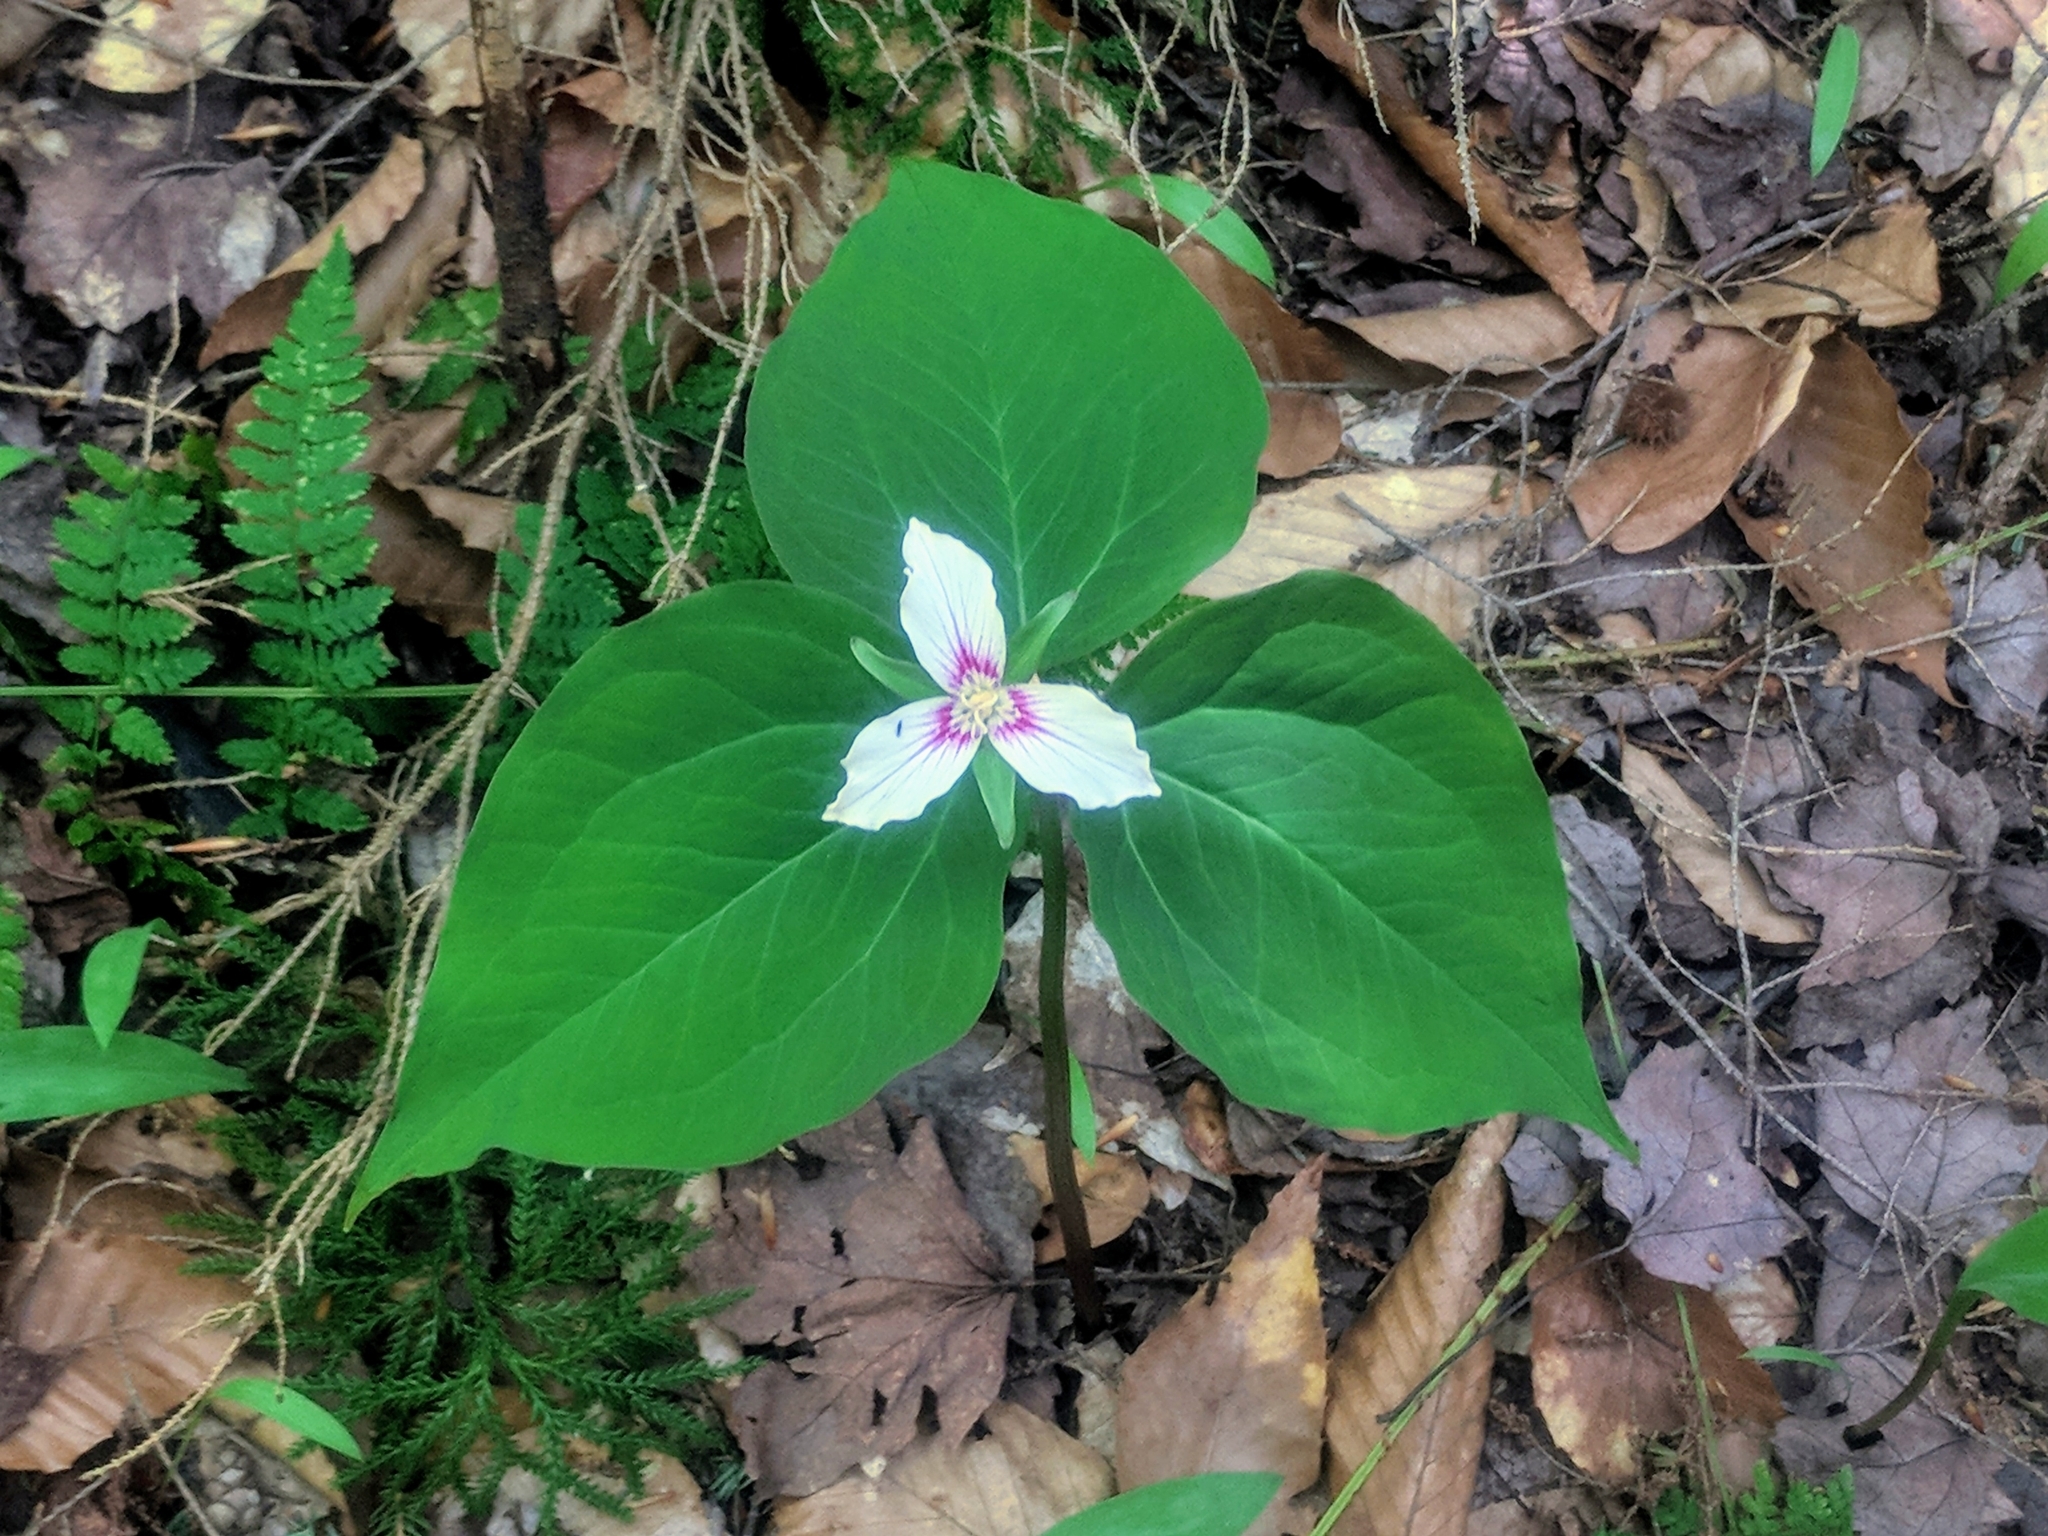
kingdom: Plantae
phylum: Tracheophyta
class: Liliopsida
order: Liliales
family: Melanthiaceae
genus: Trillium
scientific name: Trillium undulatum
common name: Paint trillium
